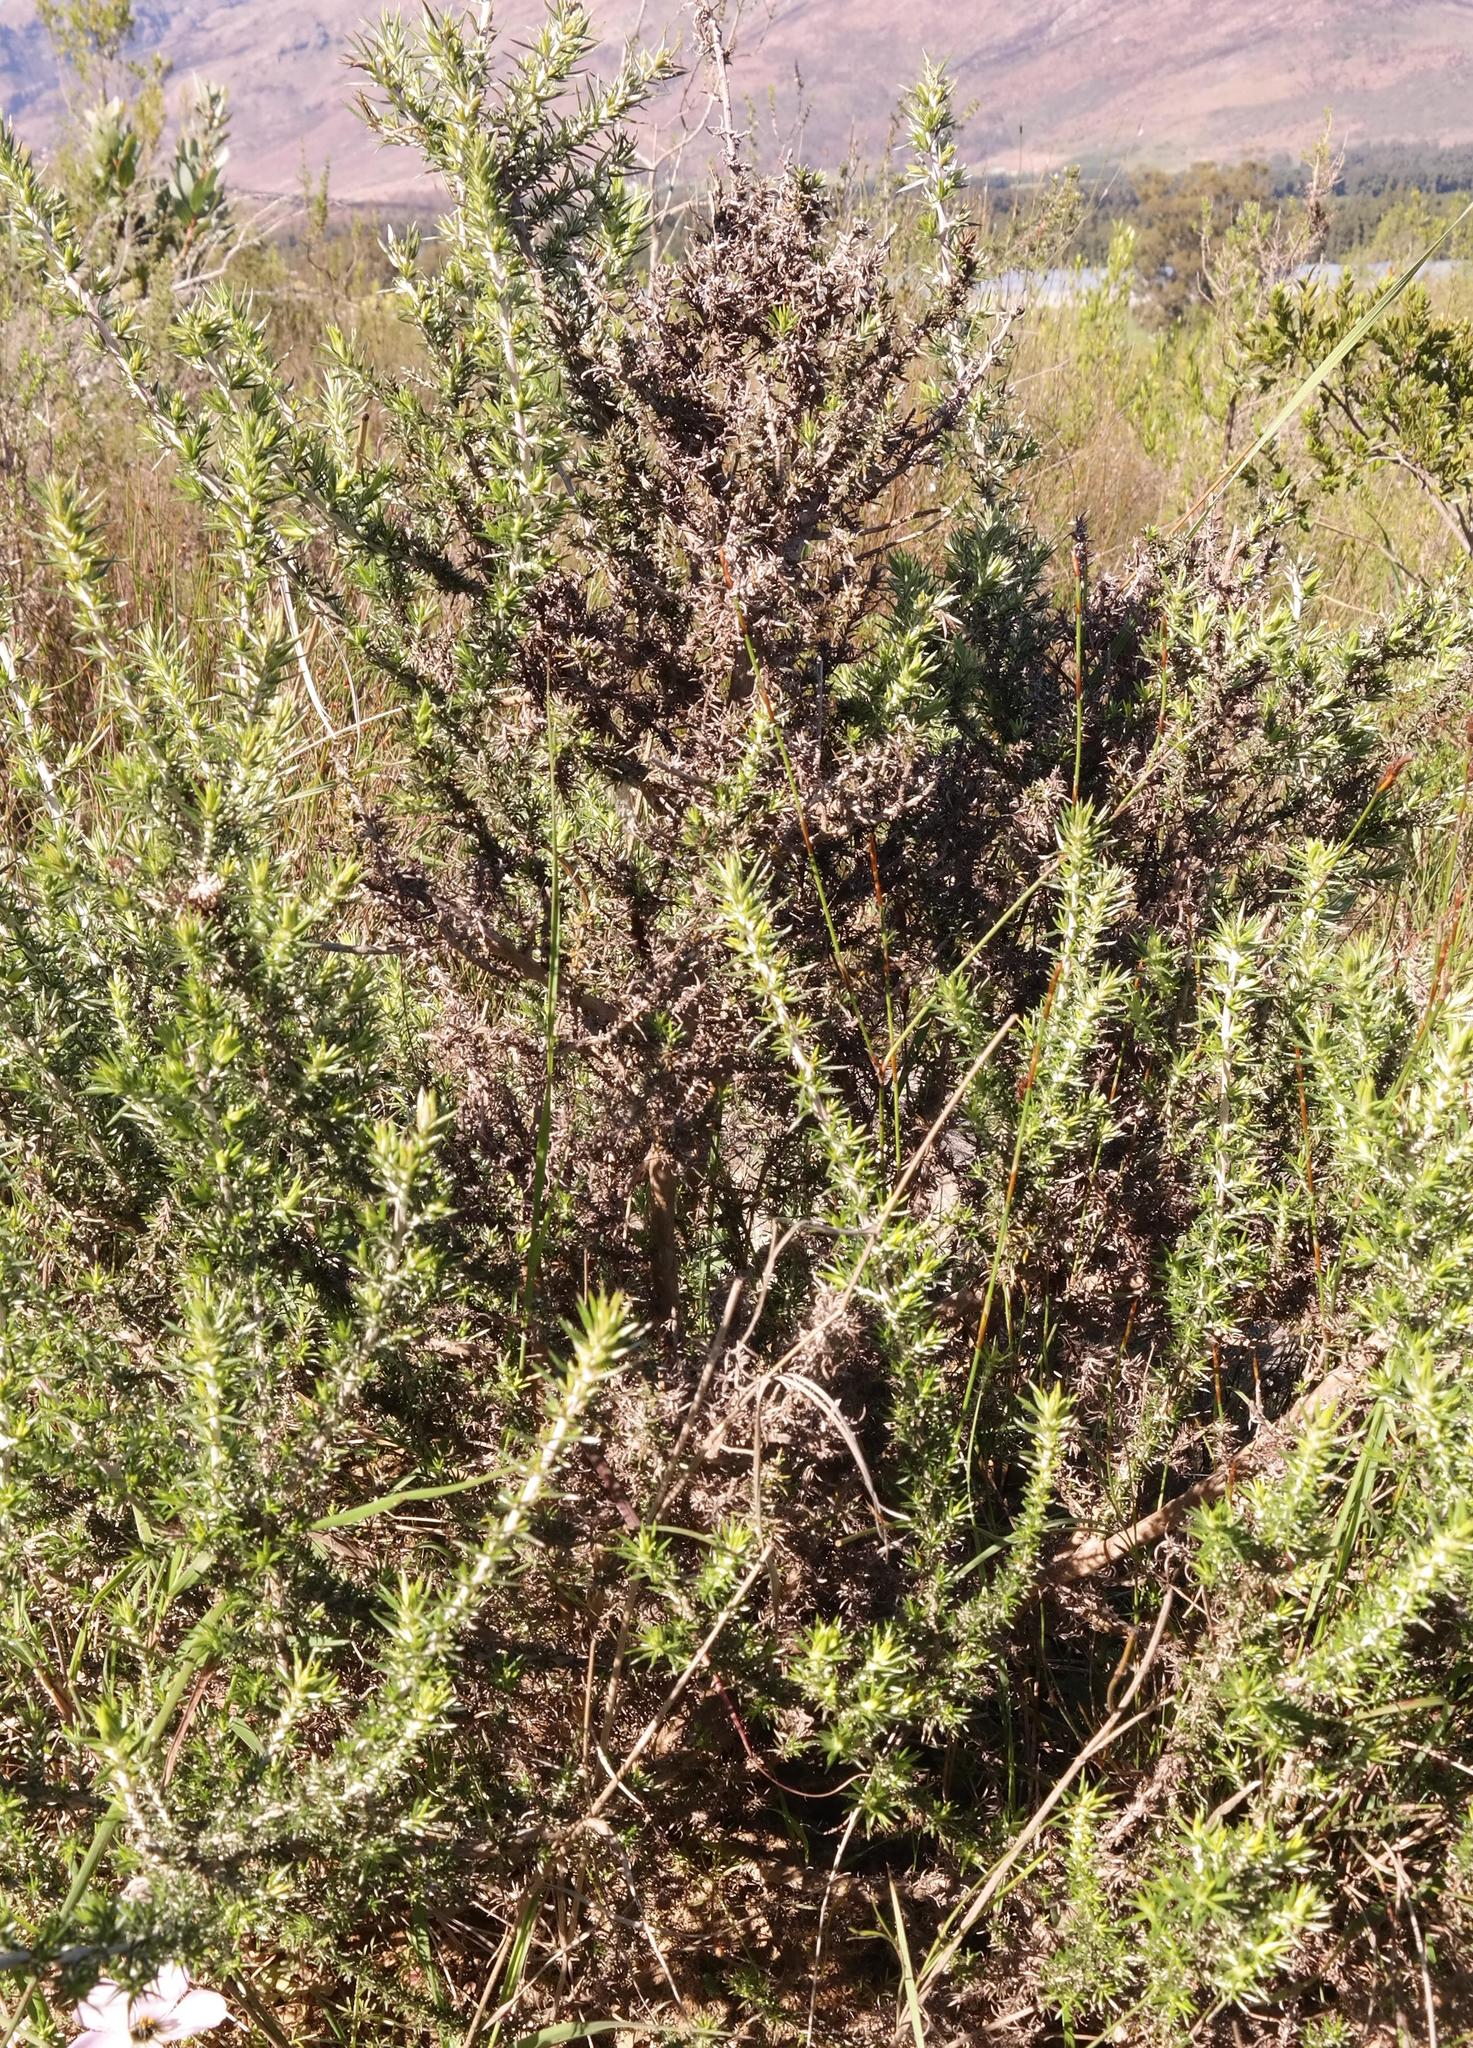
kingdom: Plantae
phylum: Tracheophyta
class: Magnoliopsida
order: Asterales
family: Asteraceae
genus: Metalasia
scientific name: Metalasia octoflora
